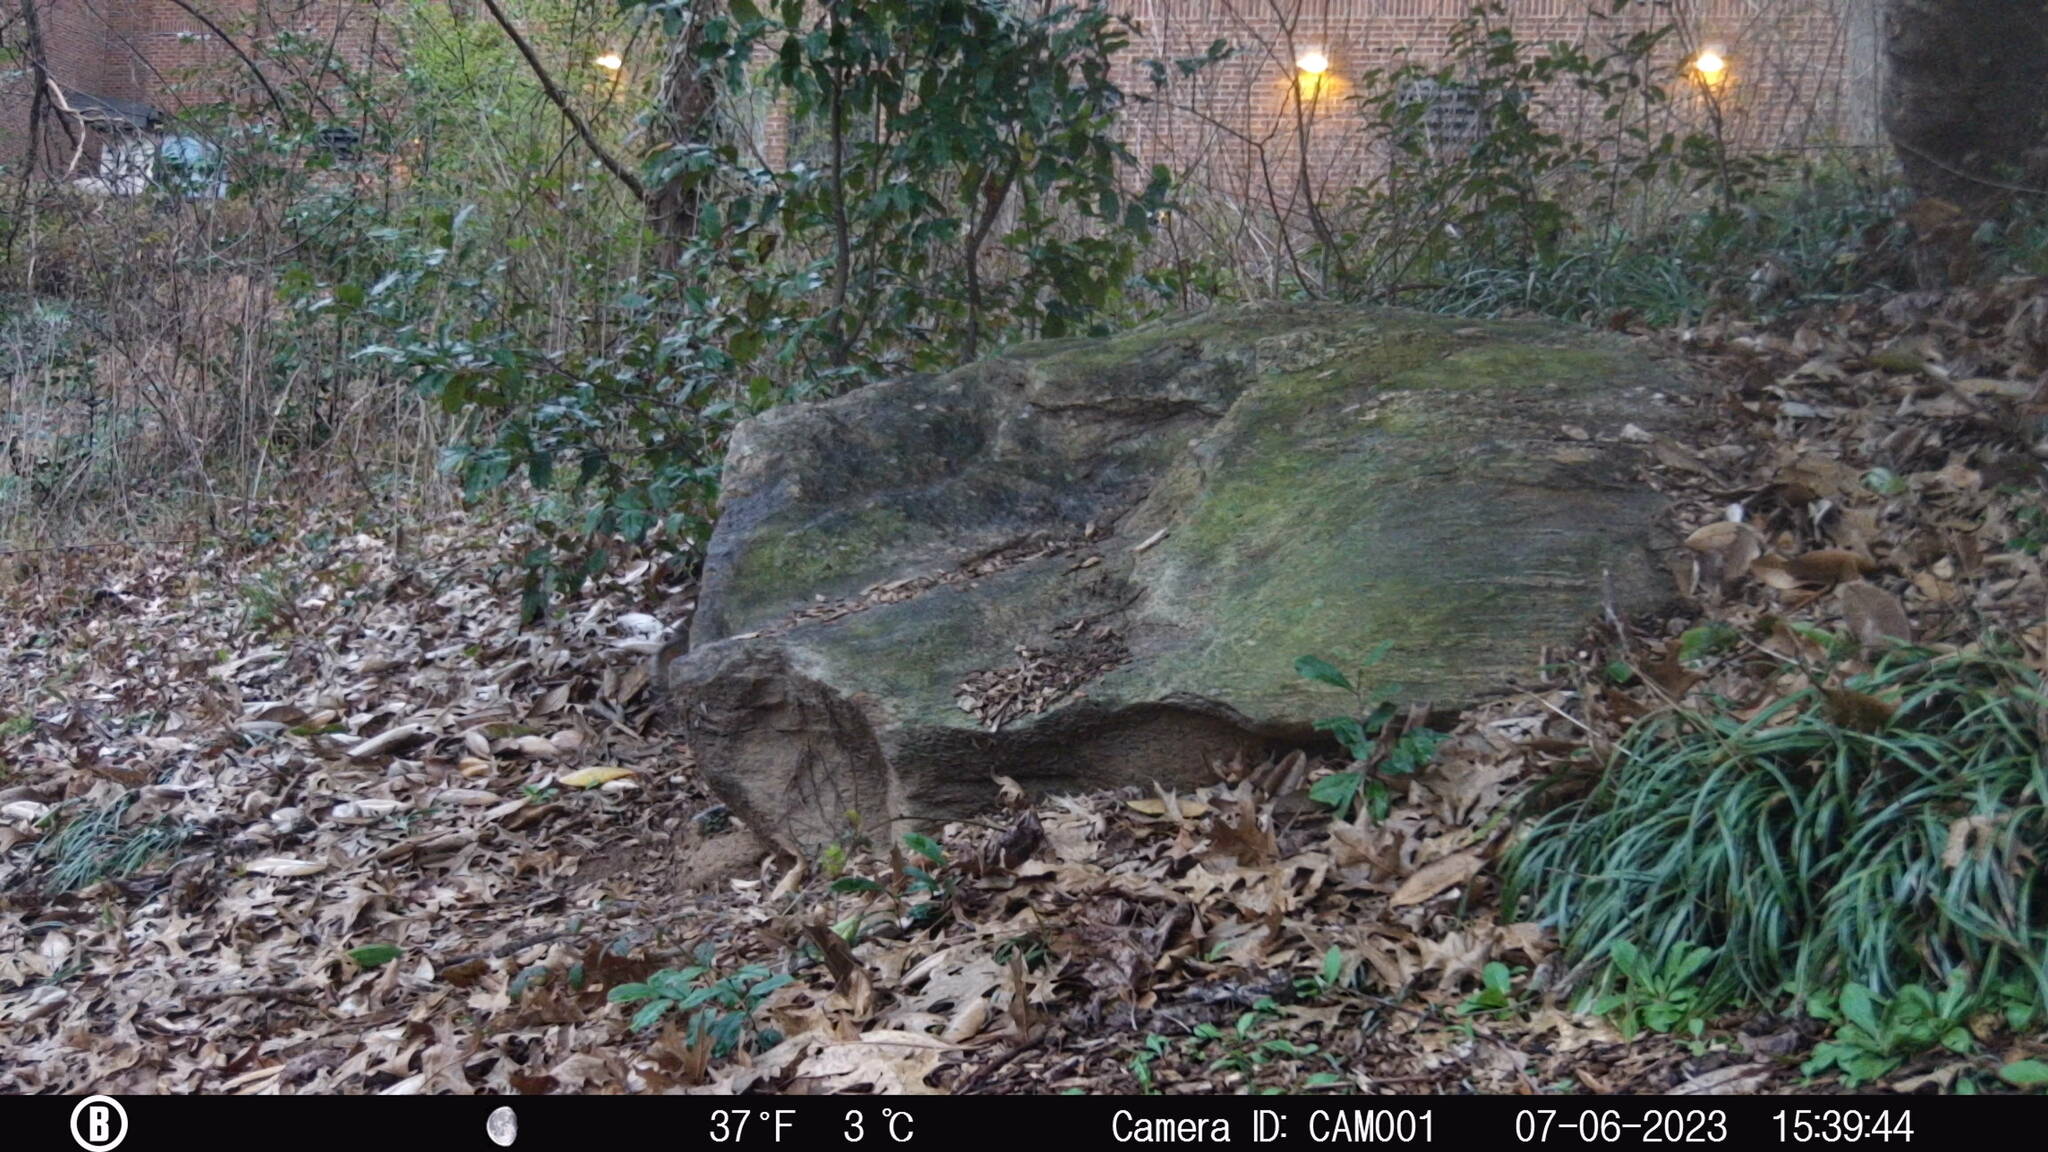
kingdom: Animalia
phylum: Chordata
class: Mammalia
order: Rodentia
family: Sciuridae
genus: Sciurus
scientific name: Sciurus carolinensis
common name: Eastern gray squirrel
